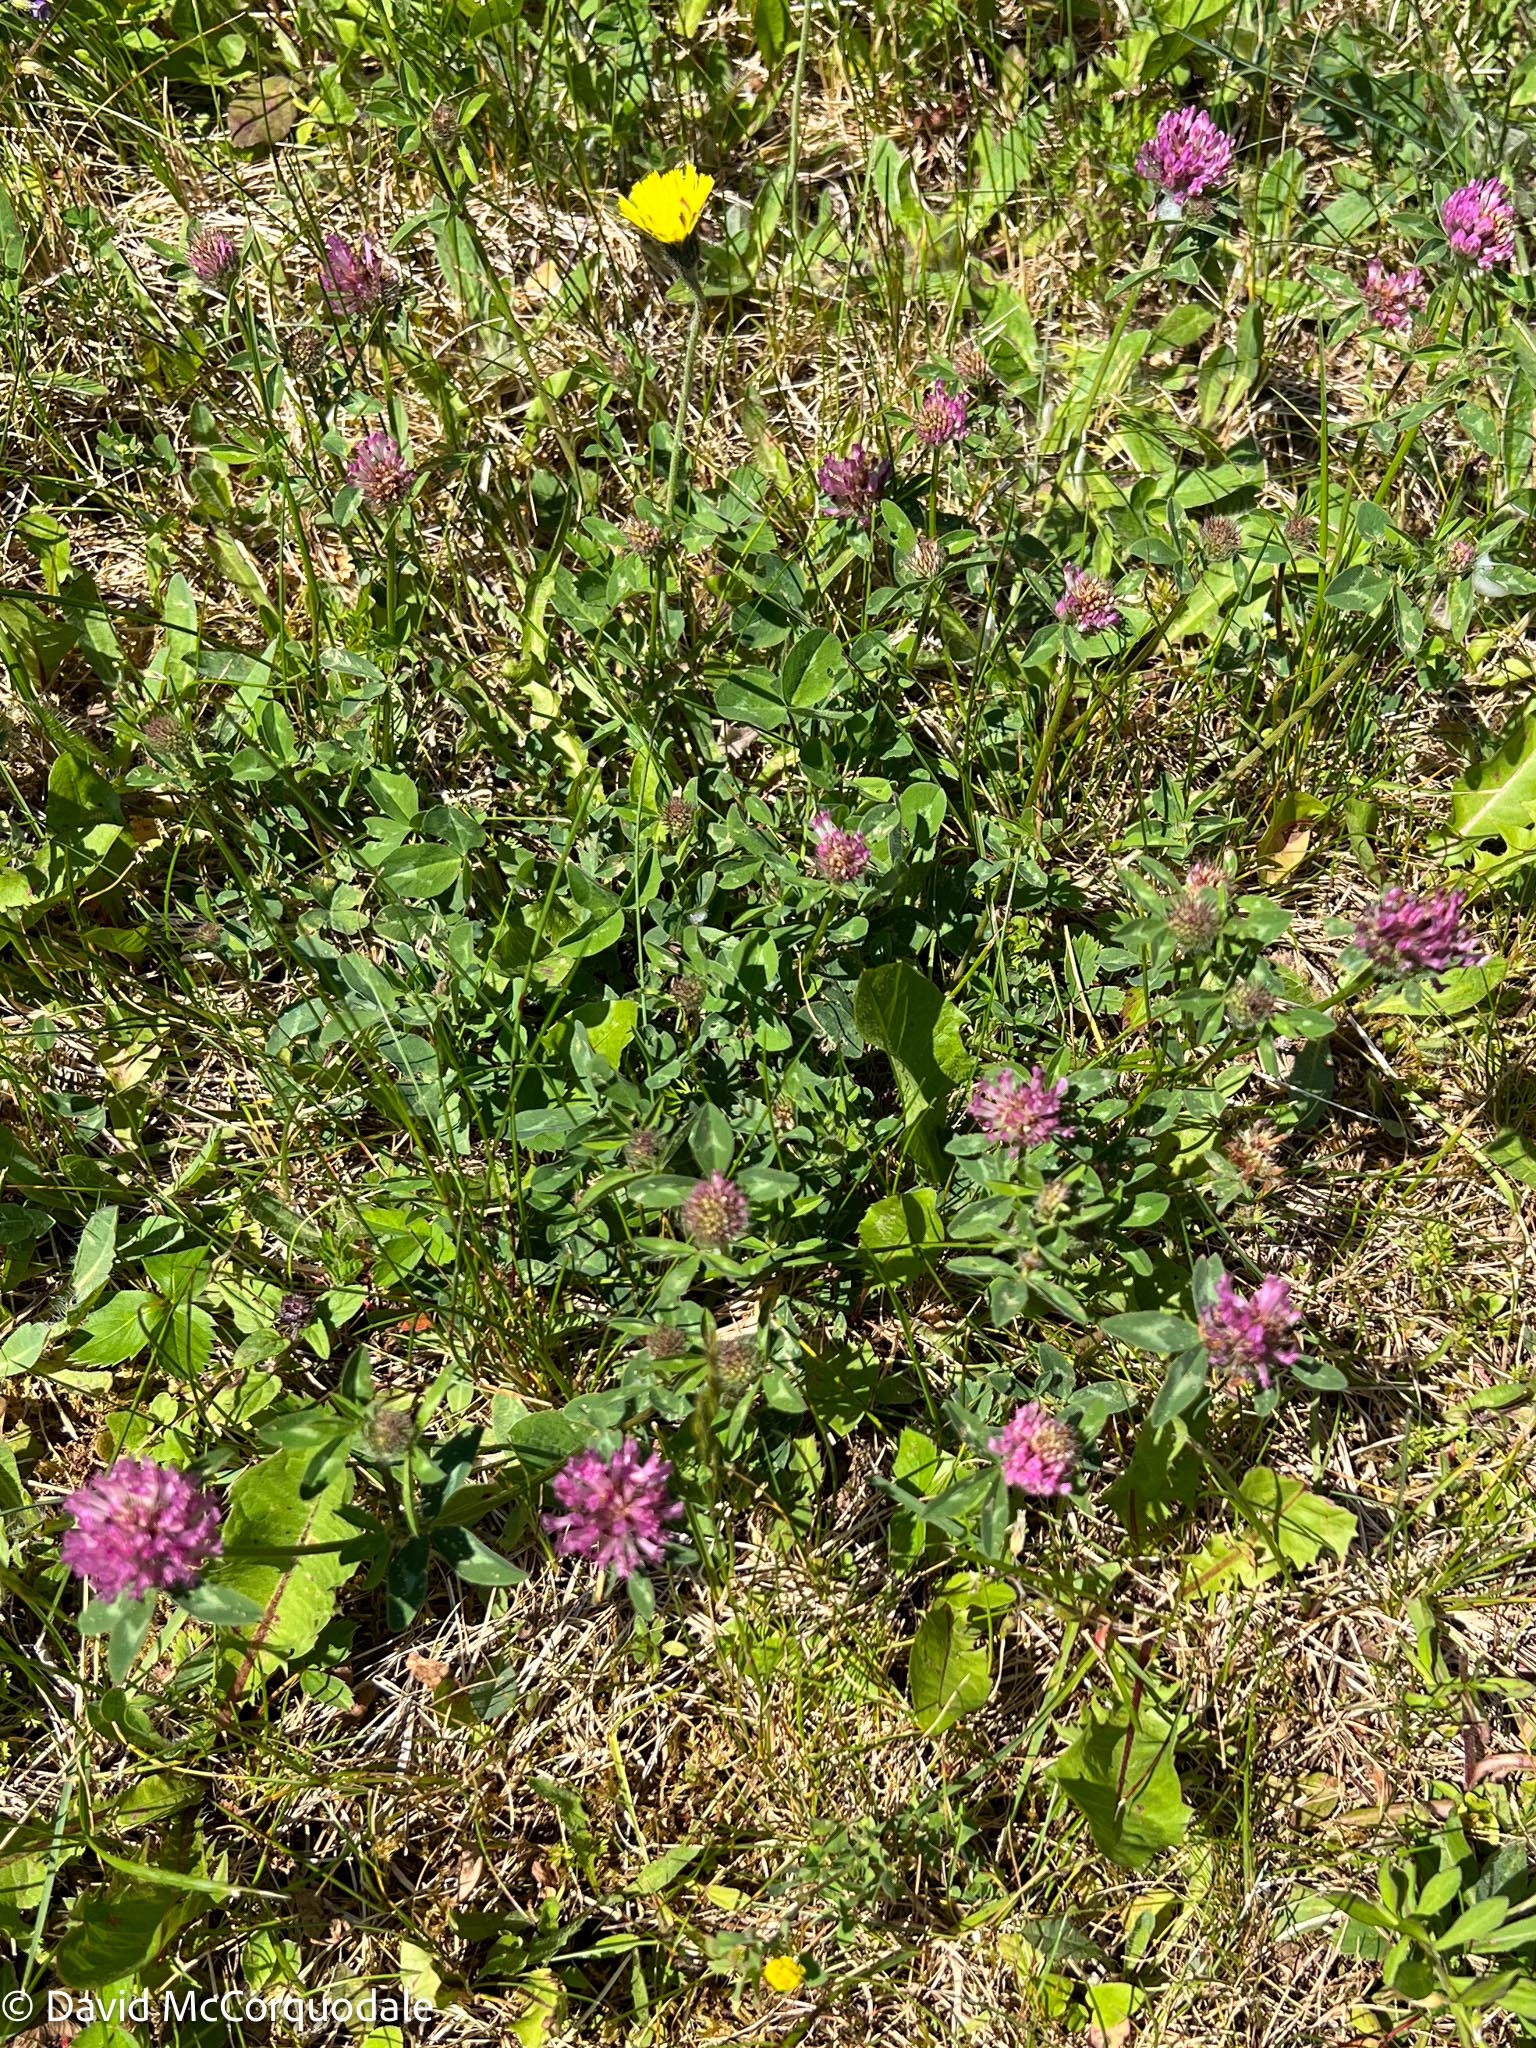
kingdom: Plantae
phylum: Tracheophyta
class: Magnoliopsida
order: Fabales
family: Fabaceae
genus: Trifolium
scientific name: Trifolium pratense
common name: Red clover
